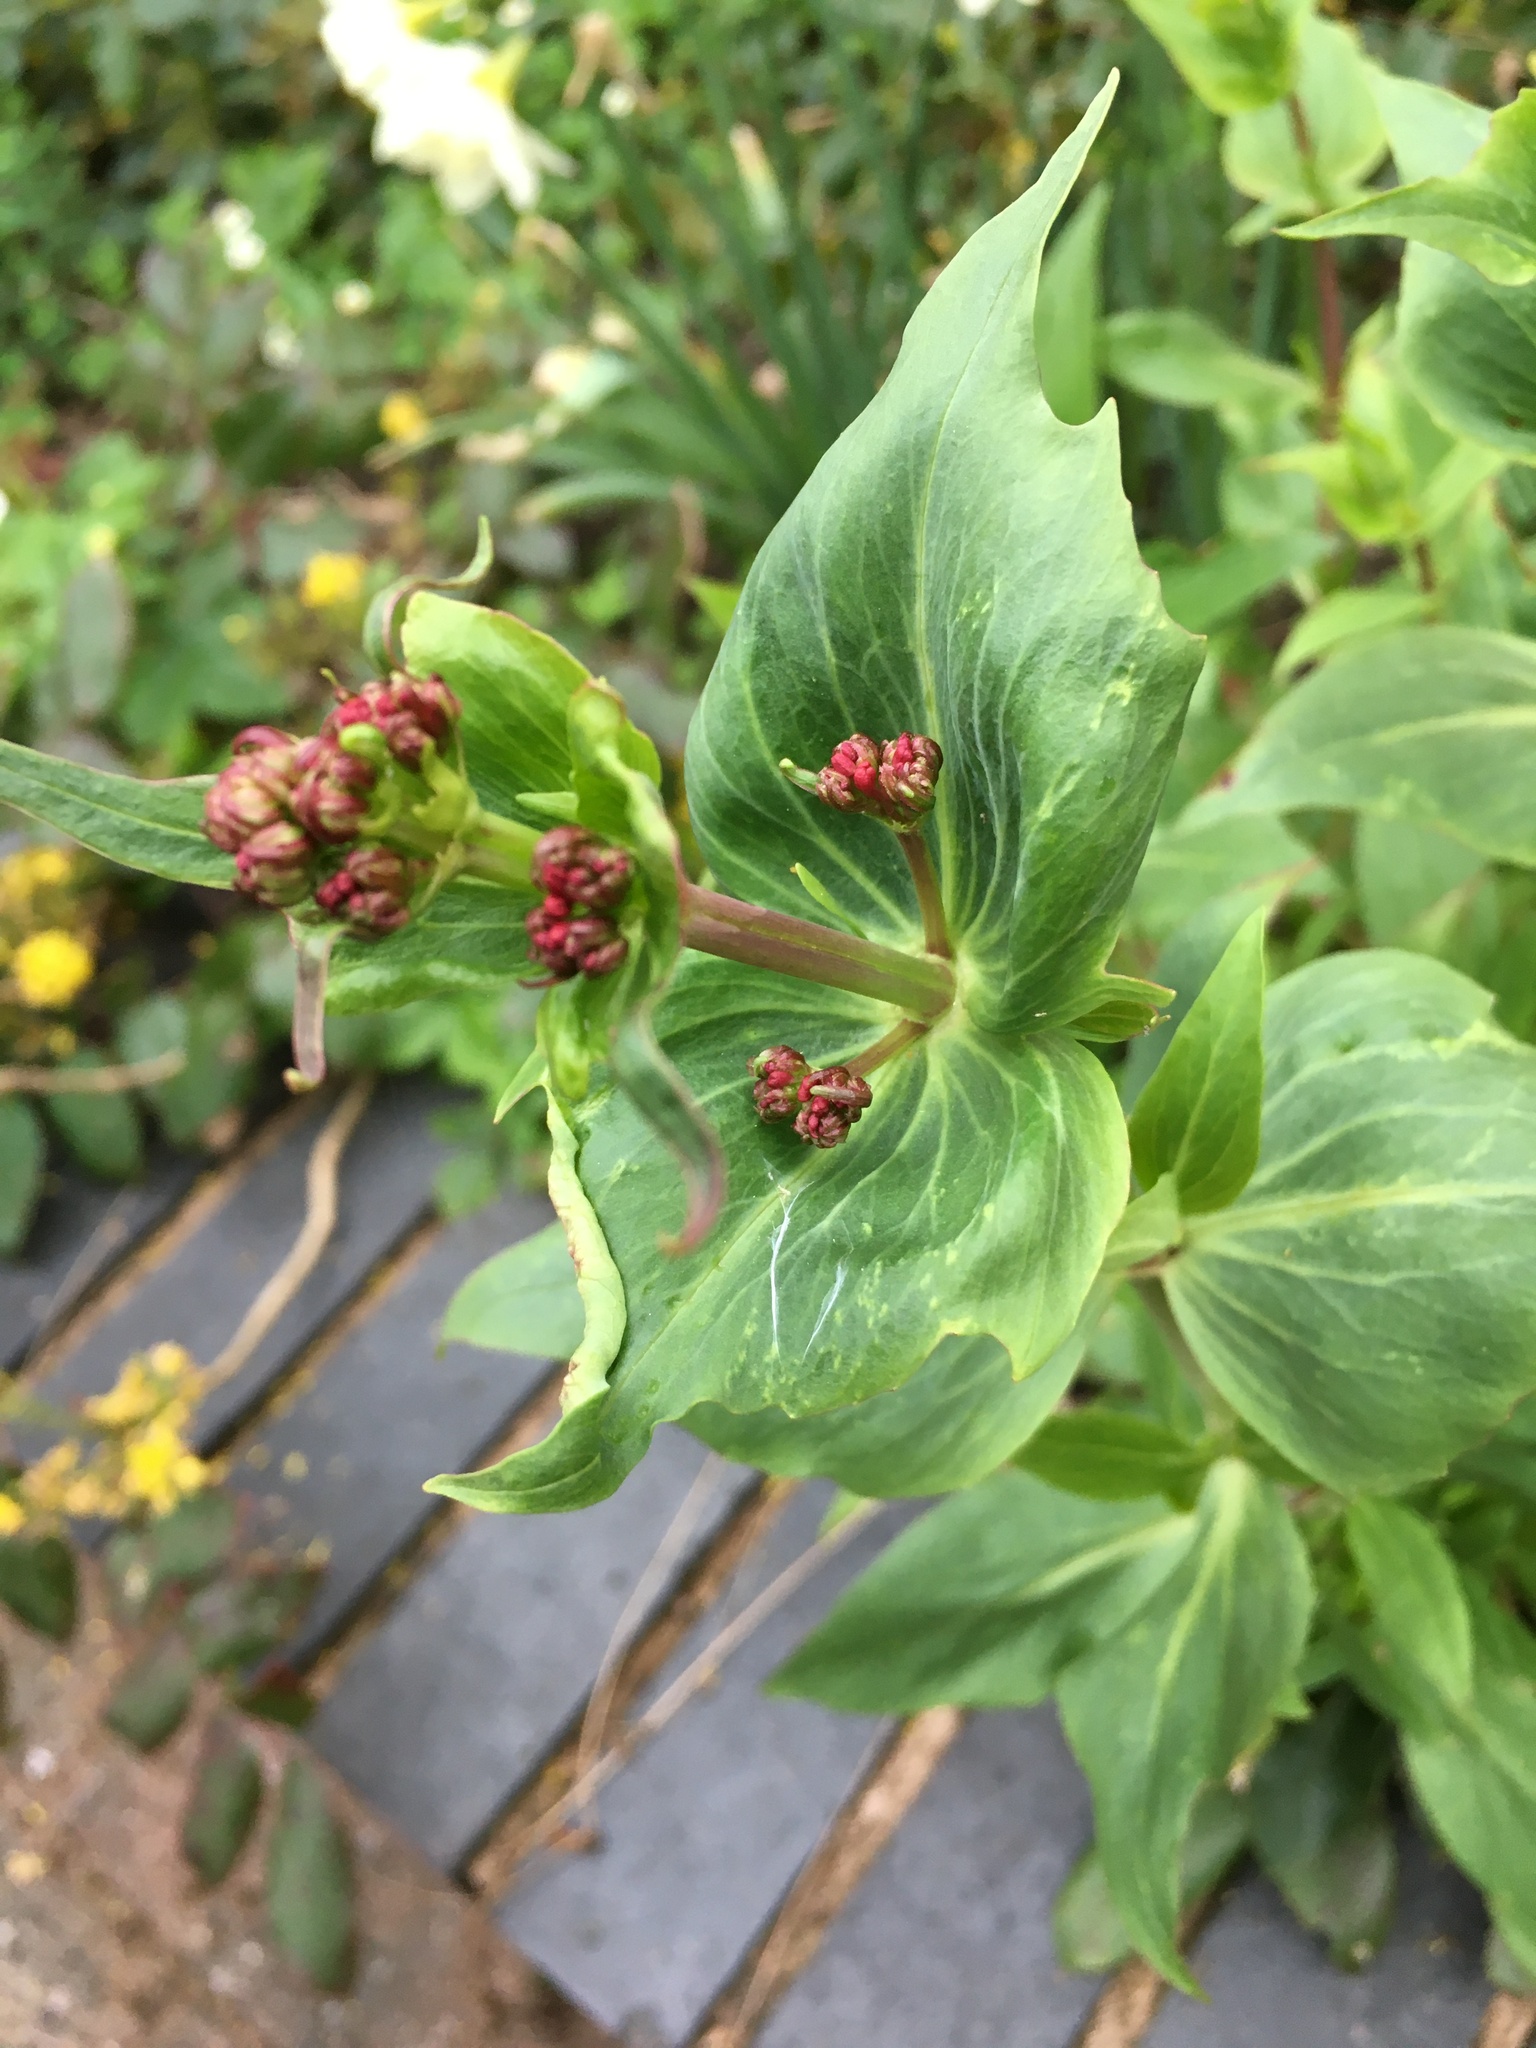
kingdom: Plantae
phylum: Tracheophyta
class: Magnoliopsida
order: Dipsacales
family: Caprifoliaceae
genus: Centranthus
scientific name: Centranthus ruber
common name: Red valerian
